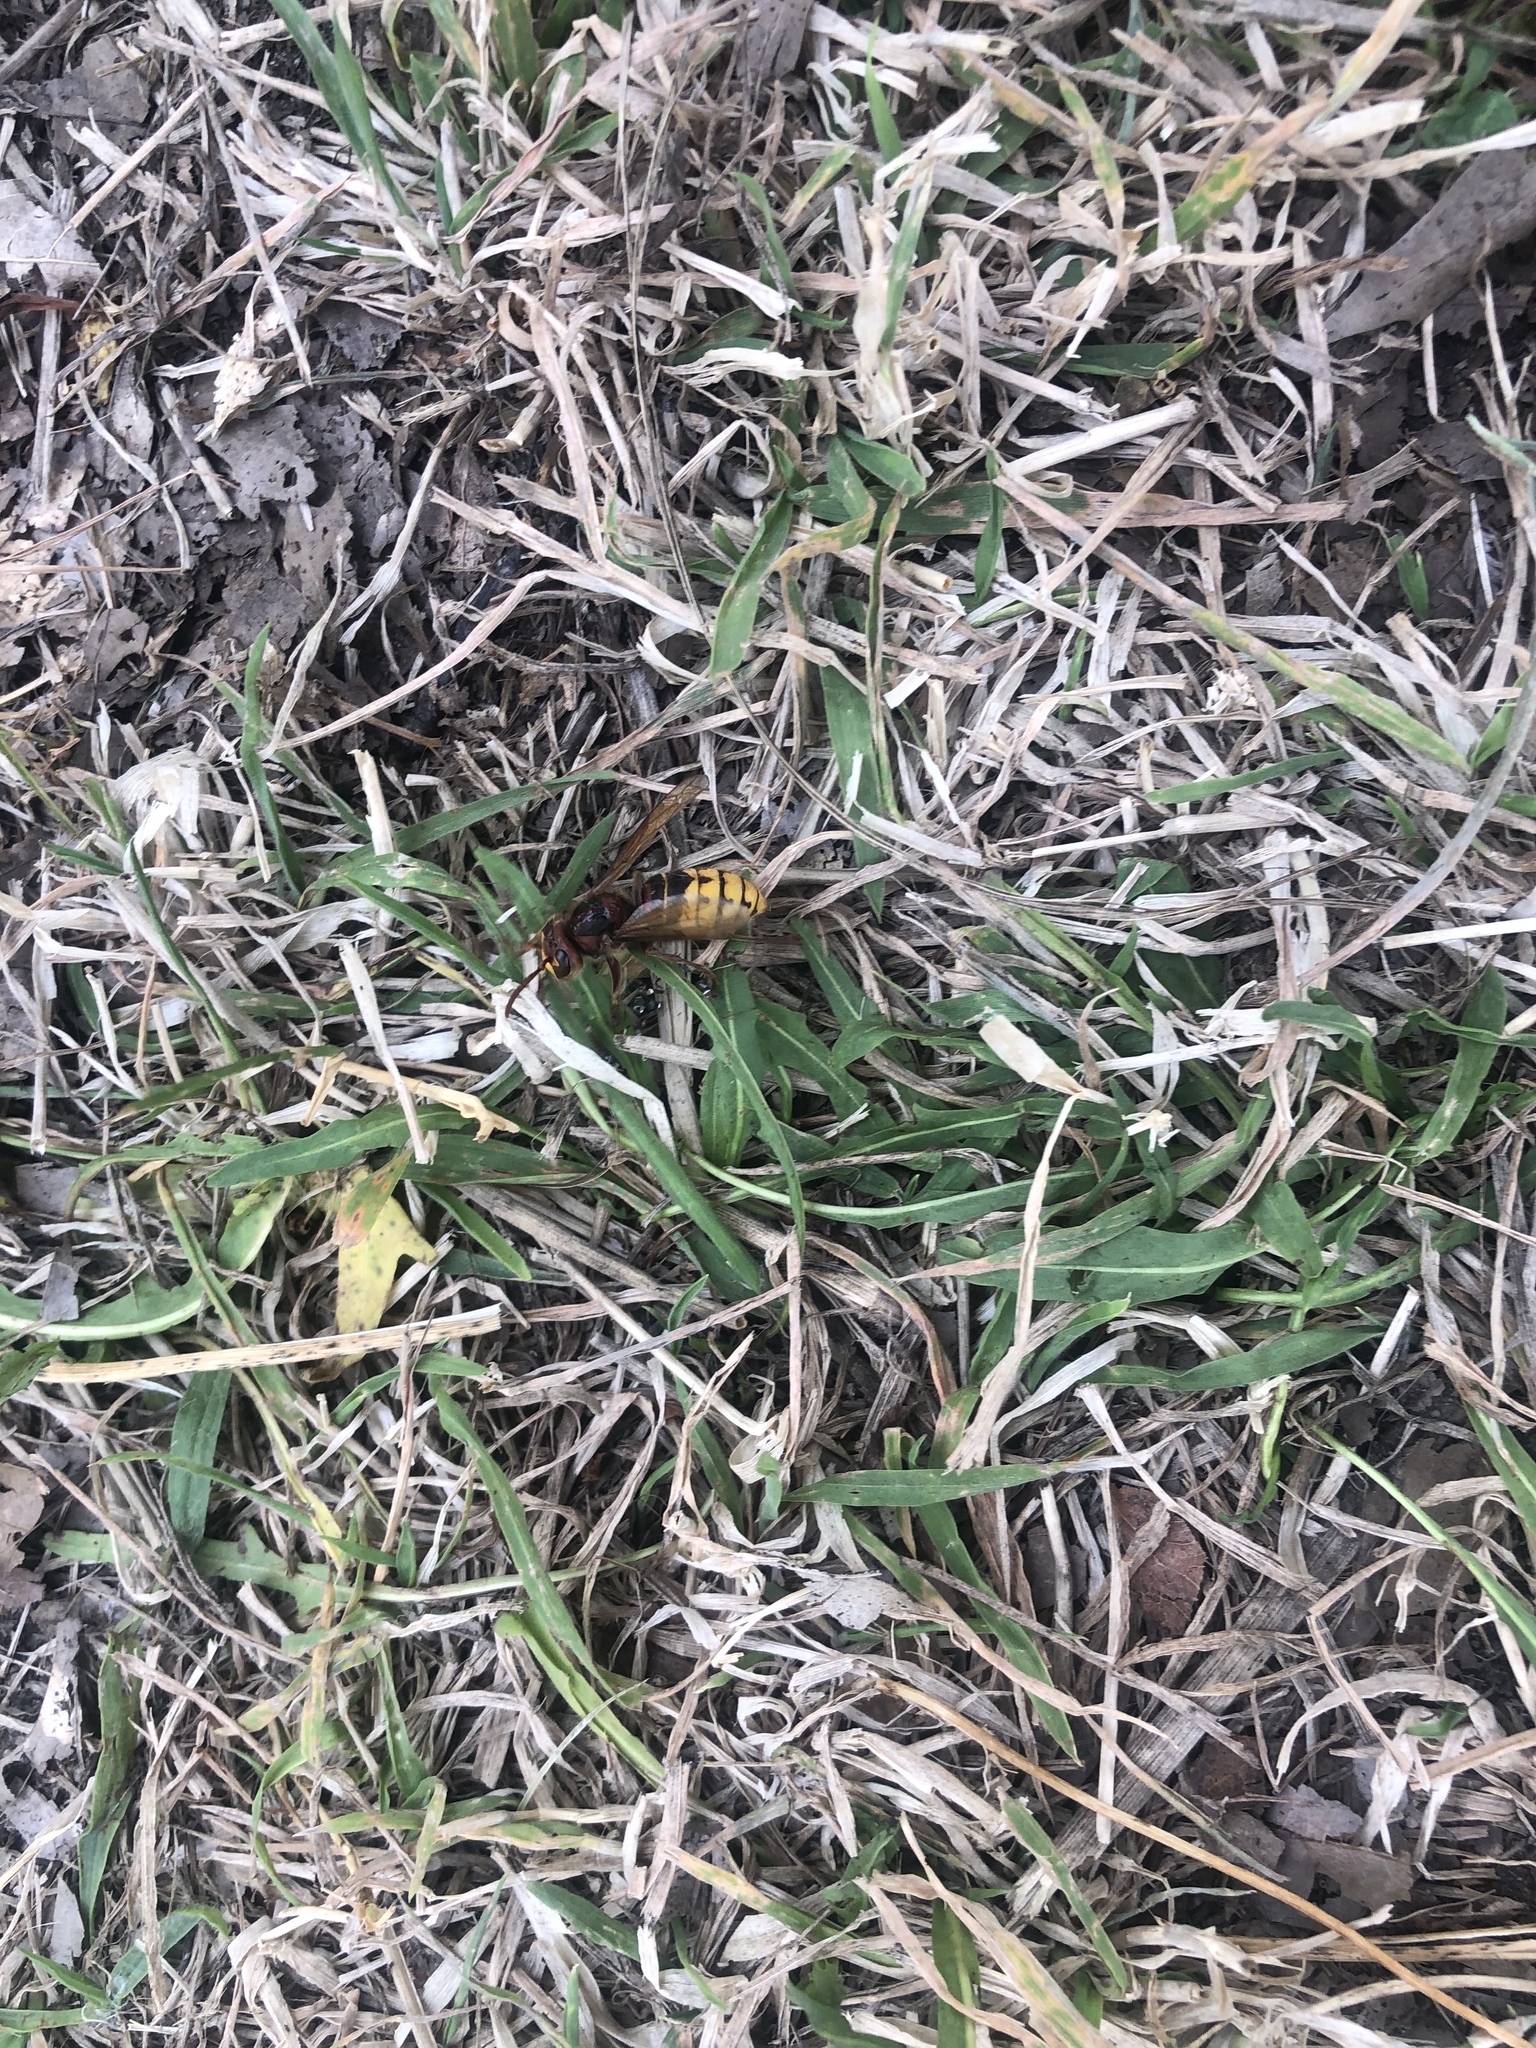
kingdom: Animalia
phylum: Arthropoda
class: Insecta
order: Hymenoptera
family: Vespidae
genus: Vespa
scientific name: Vespa crabro
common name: Hornet
